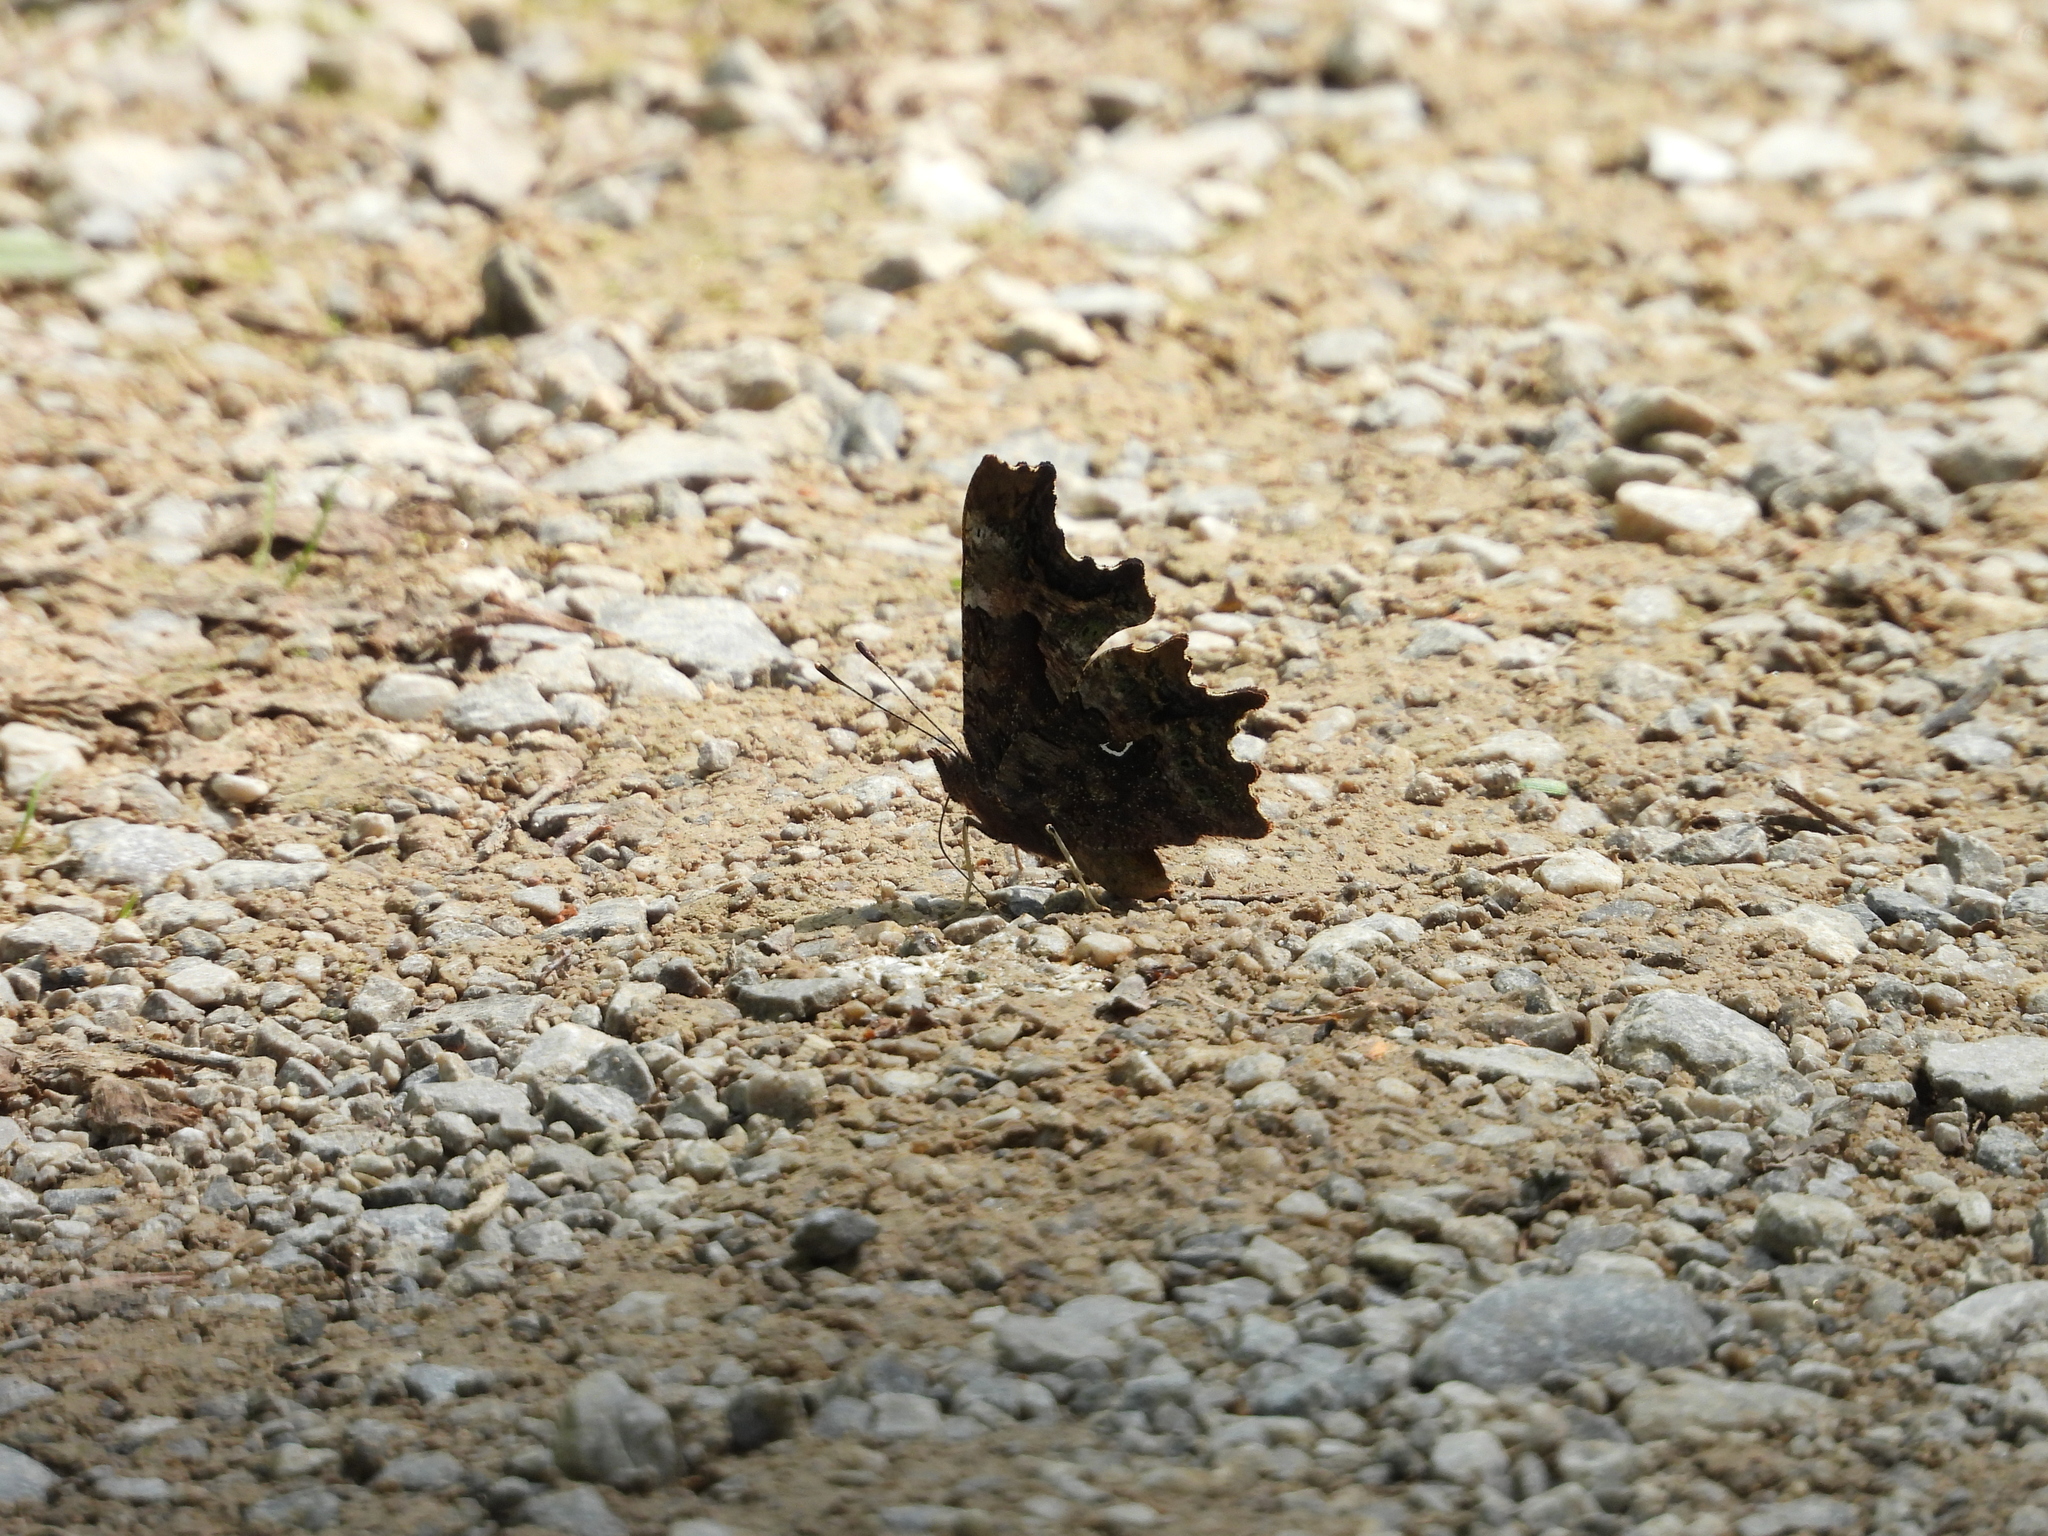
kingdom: Animalia
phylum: Arthropoda
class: Insecta
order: Lepidoptera
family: Nymphalidae
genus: Polygonia
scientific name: Polygonia c-album
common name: Comma
